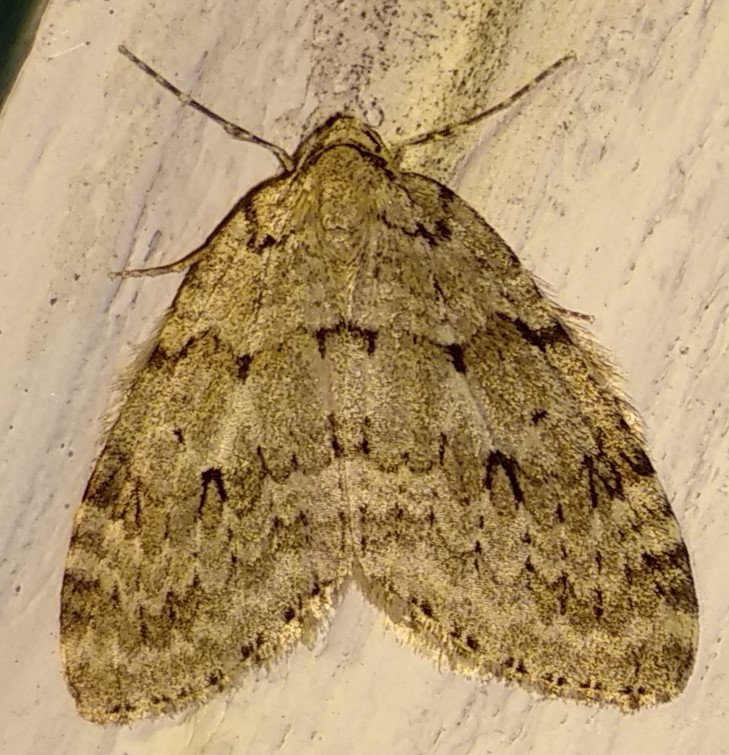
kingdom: Animalia
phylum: Arthropoda
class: Insecta
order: Lepidoptera
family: Geometridae
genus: Epirrita
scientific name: Epirrita autumnata
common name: Autumnal moth
